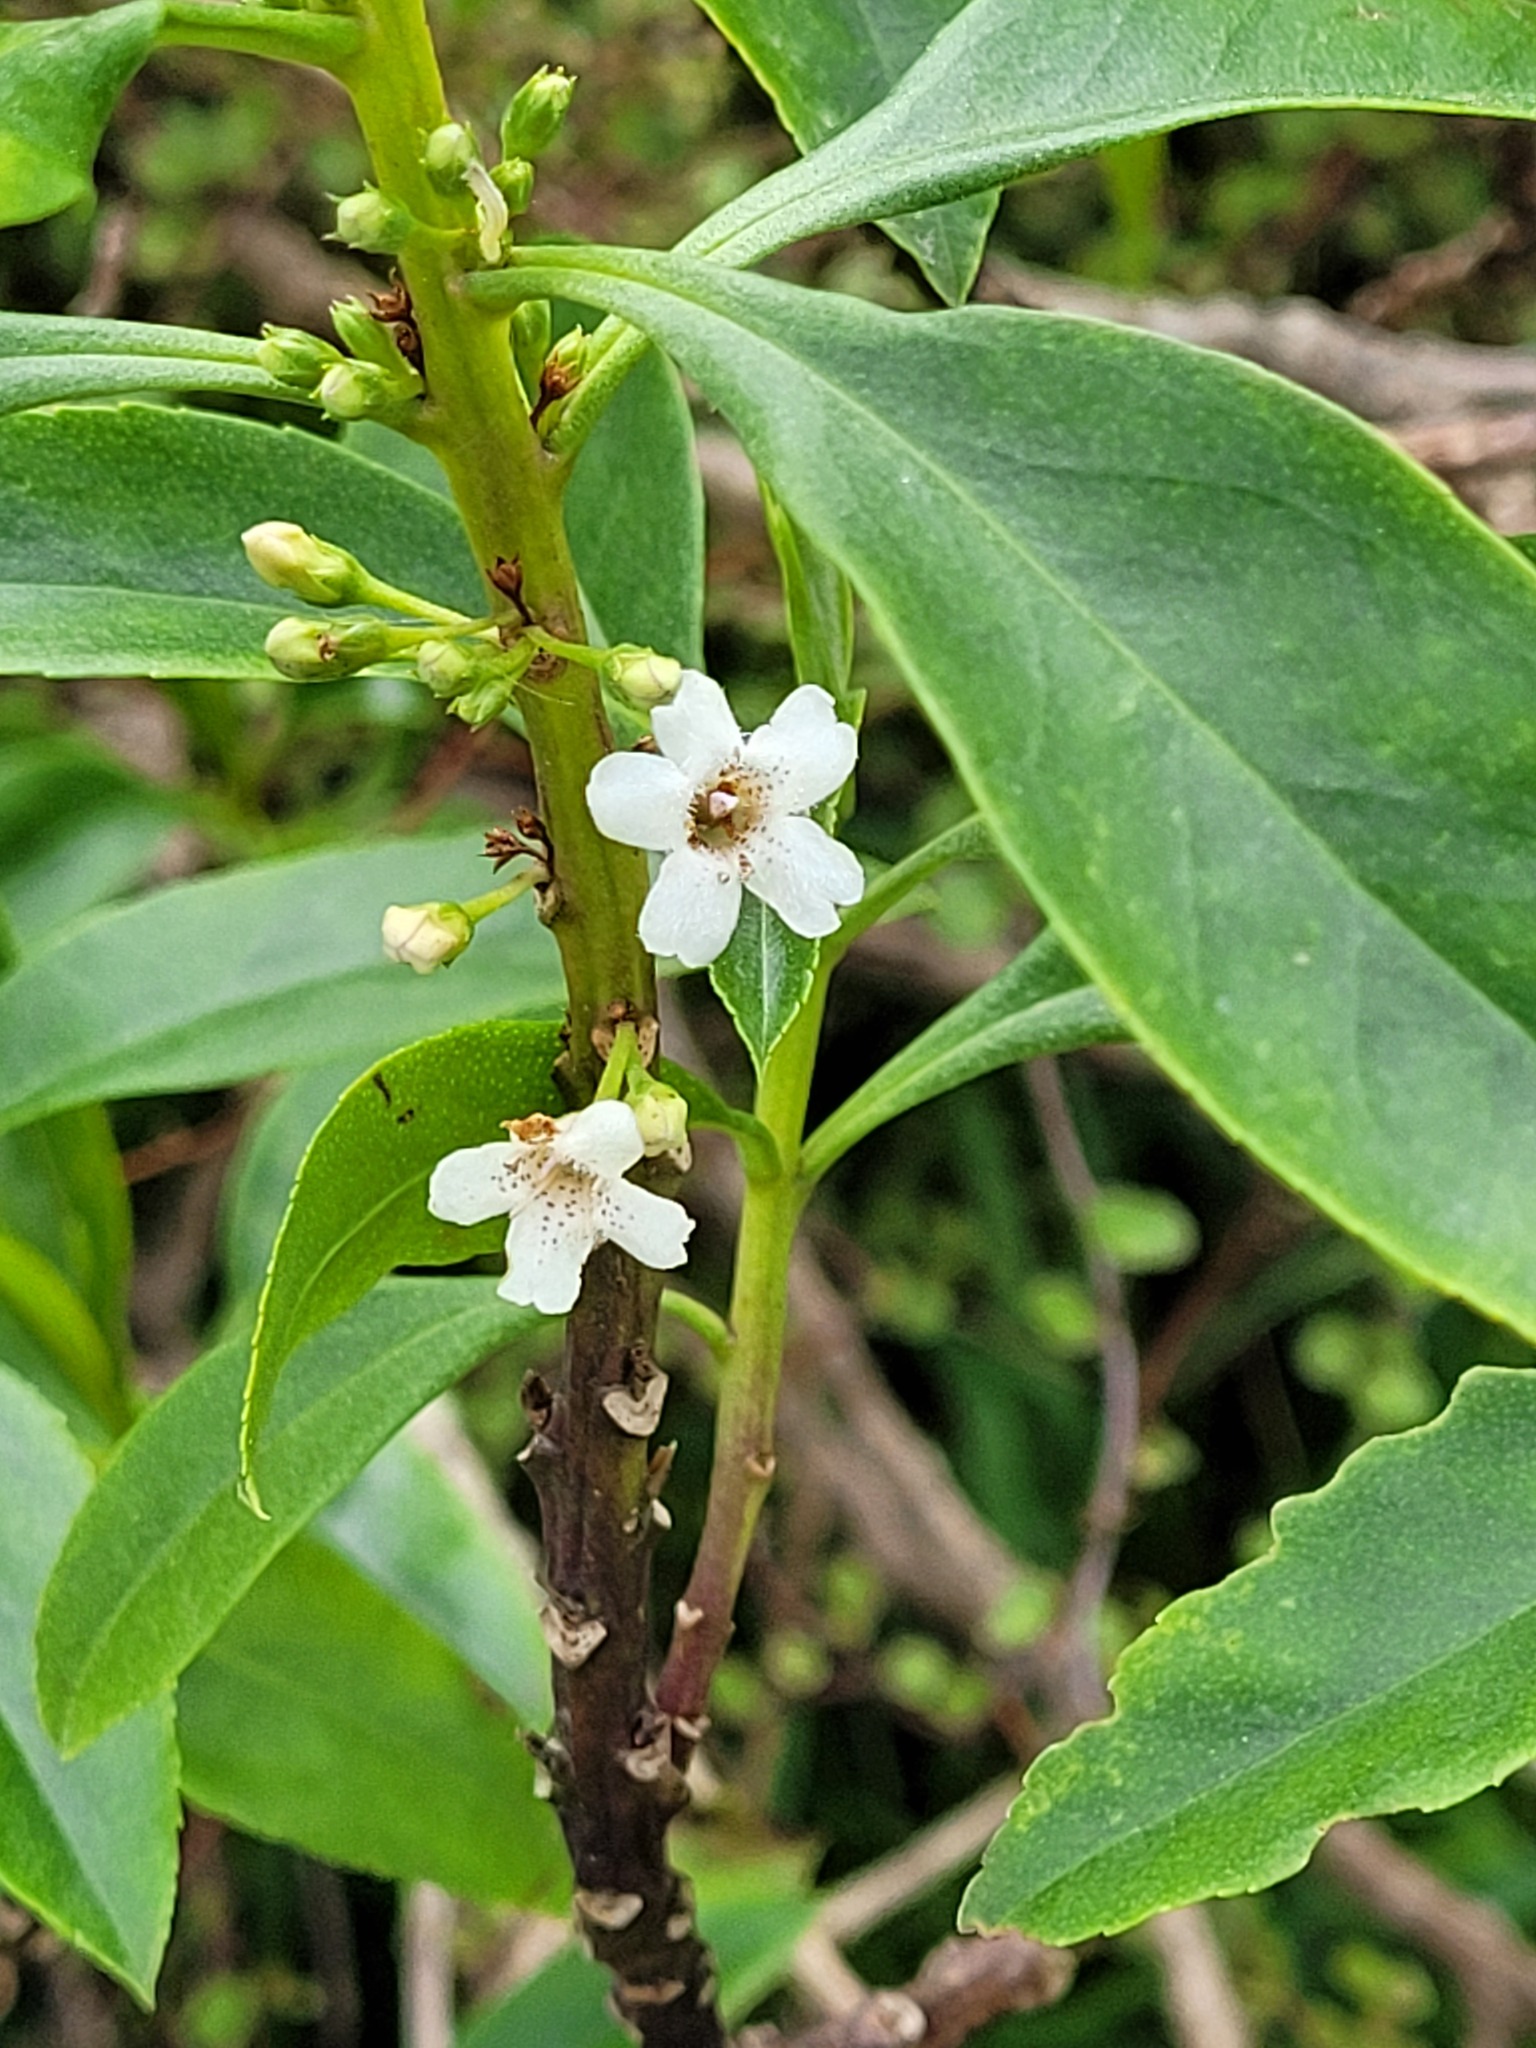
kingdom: Plantae
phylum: Tracheophyta
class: Magnoliopsida
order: Lamiales
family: Scrophulariaceae
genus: Myoporum
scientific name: Myoporum
